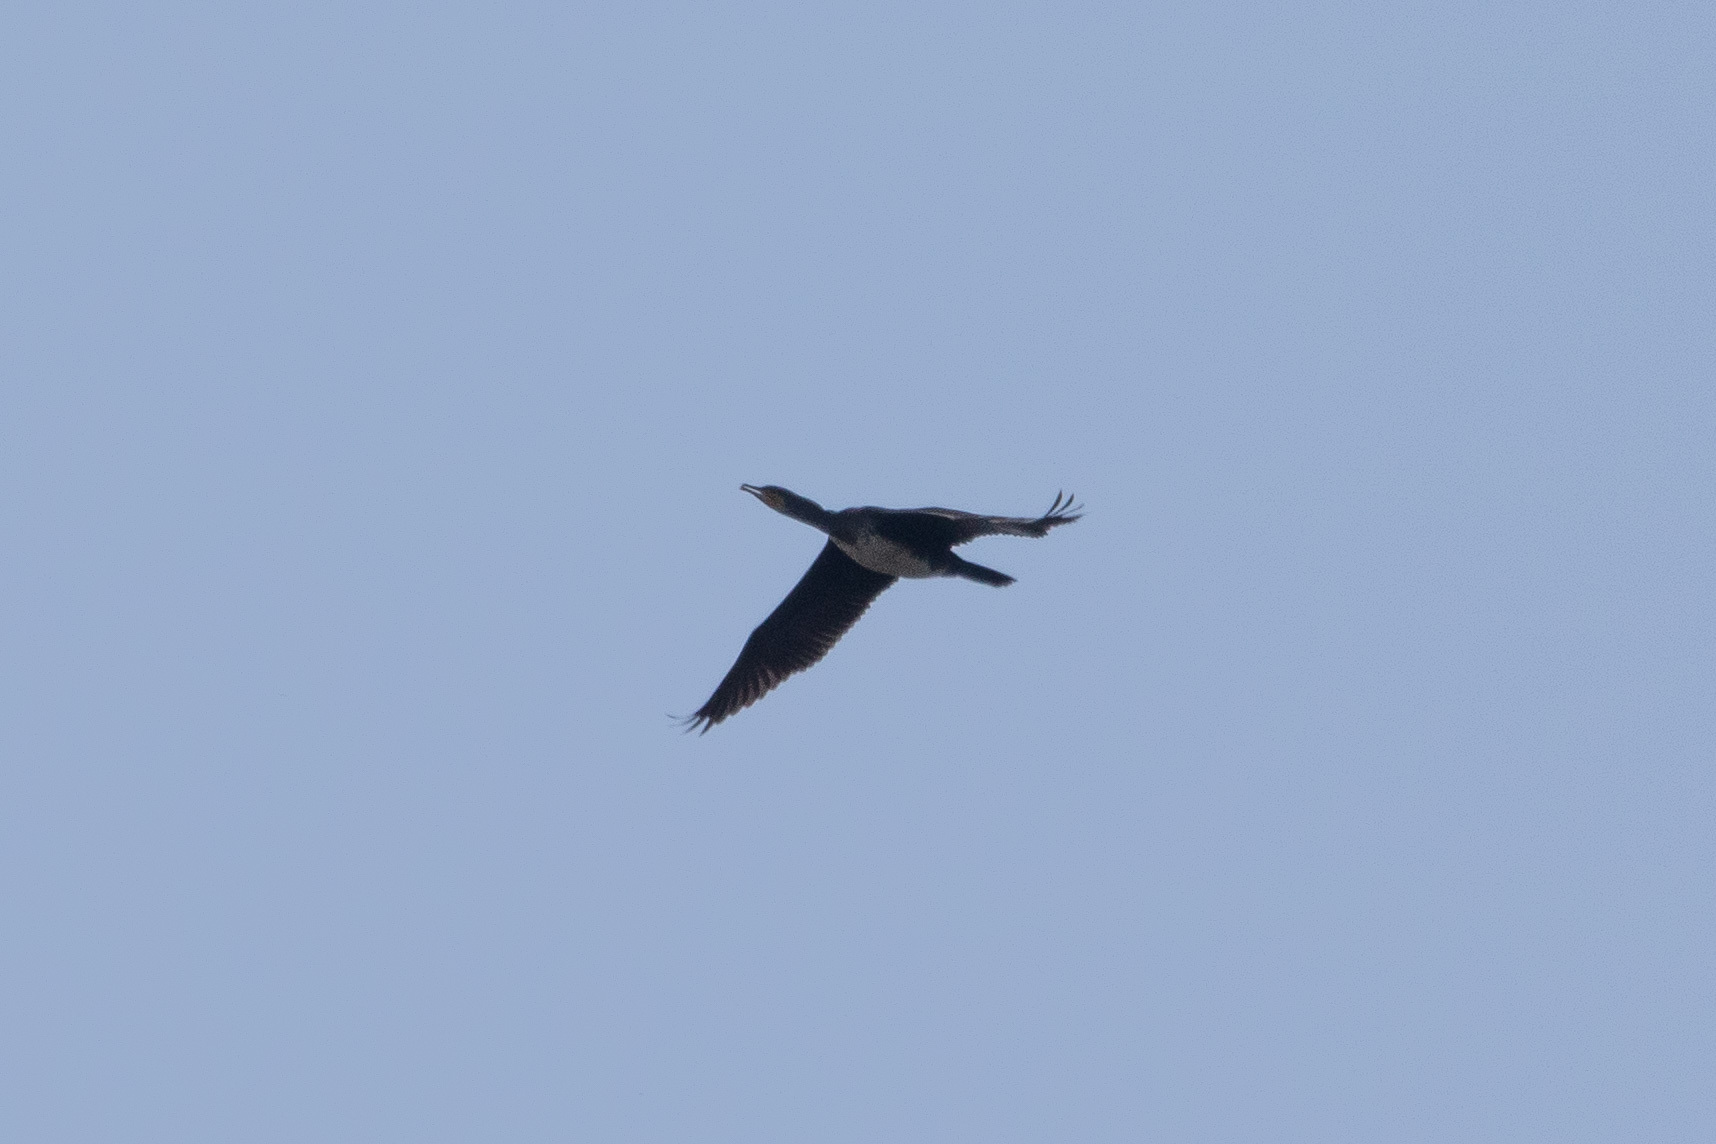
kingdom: Animalia
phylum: Chordata
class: Aves
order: Suliformes
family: Phalacrocoracidae
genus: Phalacrocorax
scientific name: Phalacrocorax carbo
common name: Great cormorant
